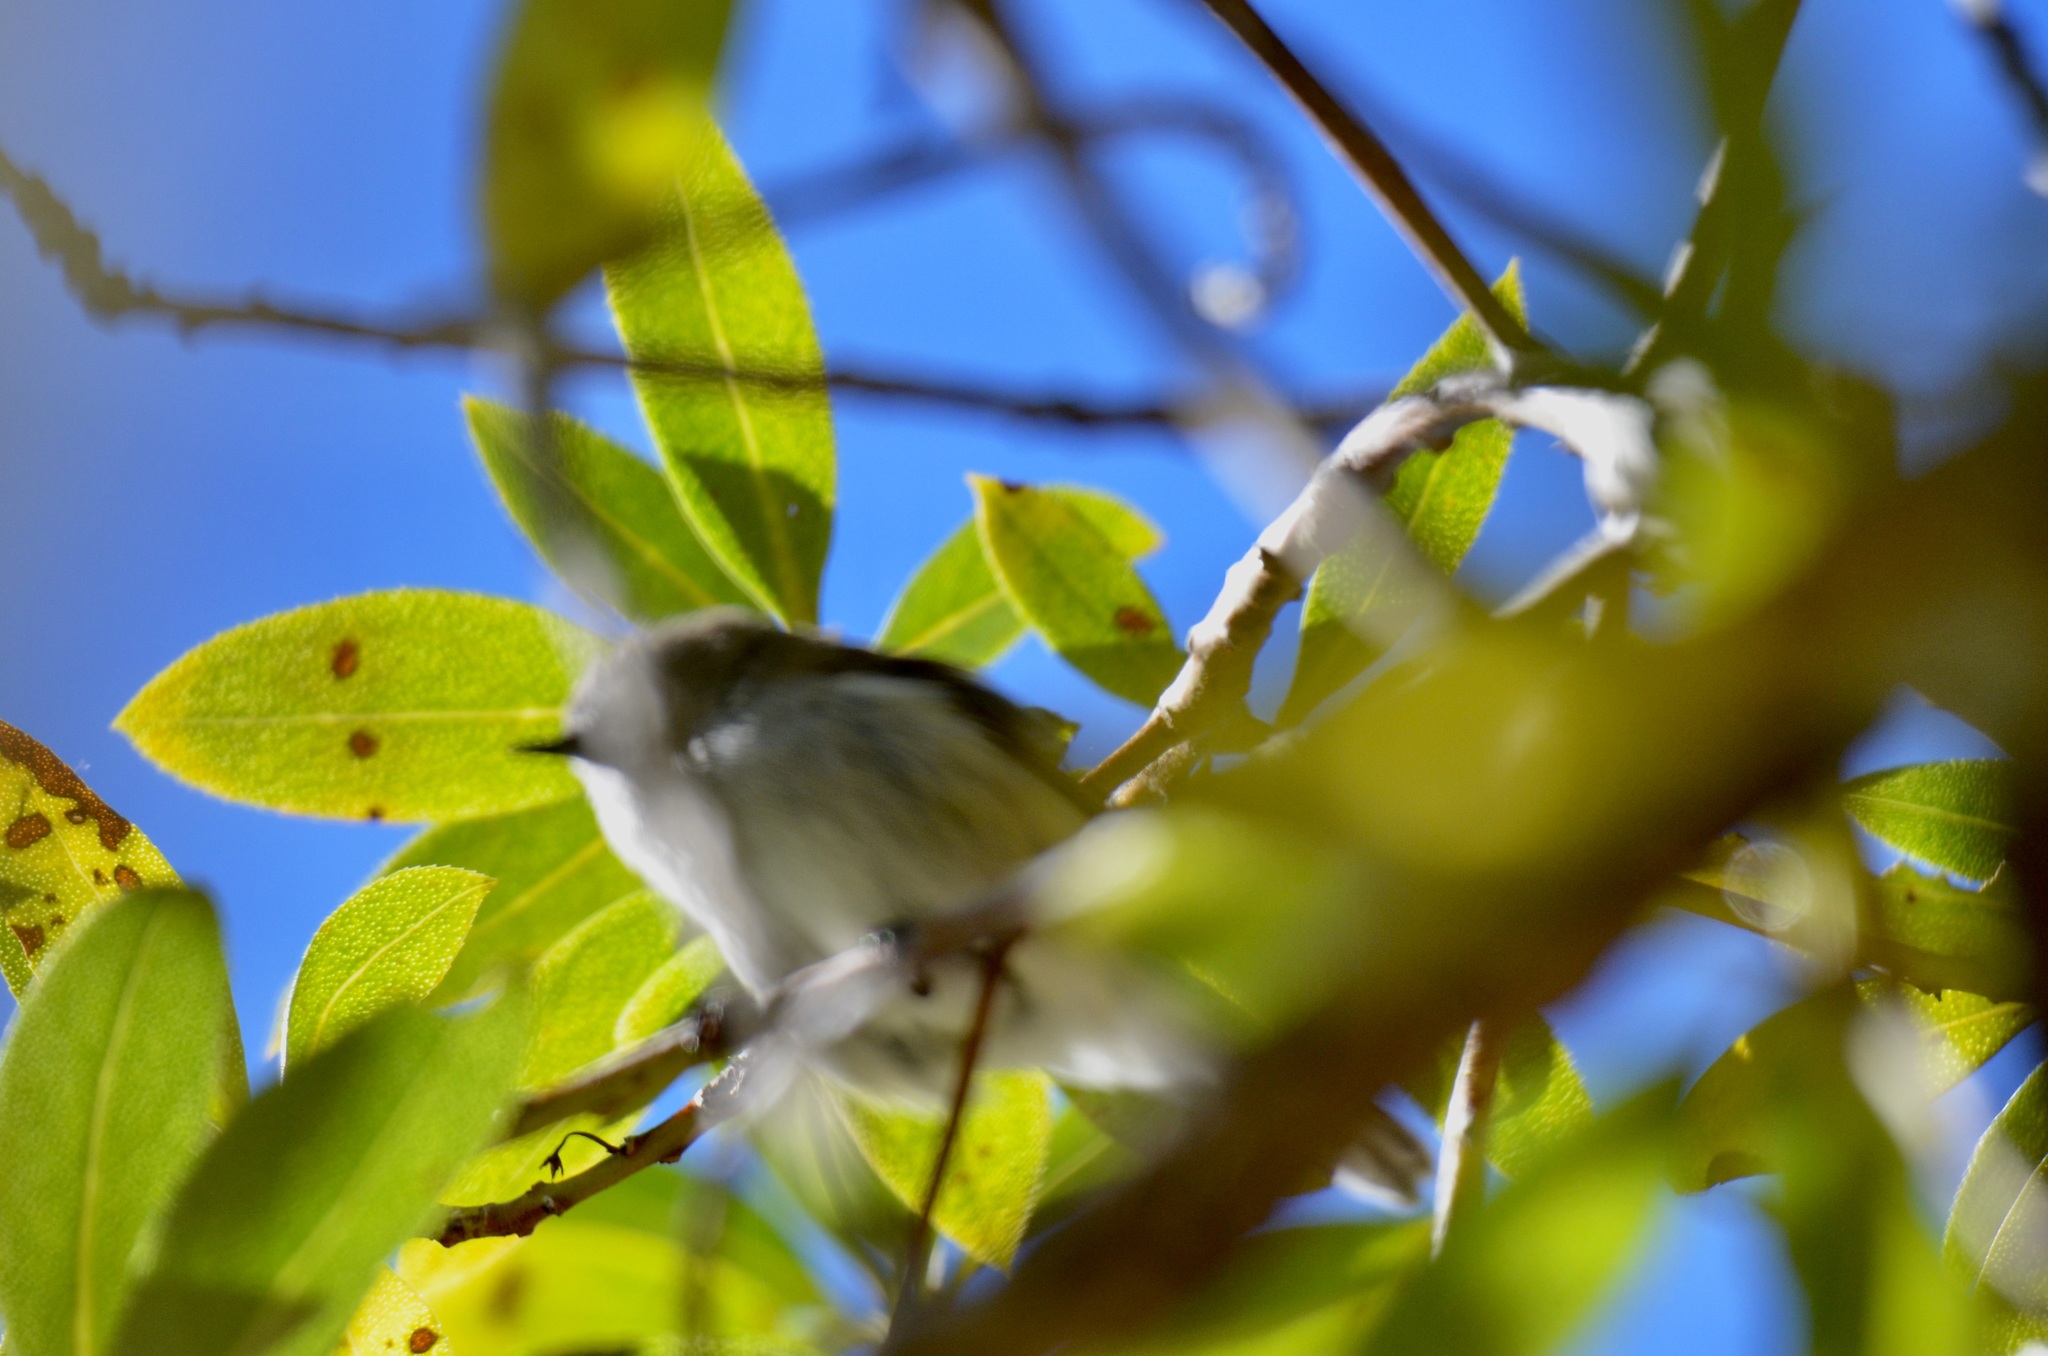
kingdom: Animalia
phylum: Chordata
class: Aves
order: Passeriformes
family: Acanthizidae
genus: Gerygone
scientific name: Gerygone igata
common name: Grey gerygone
